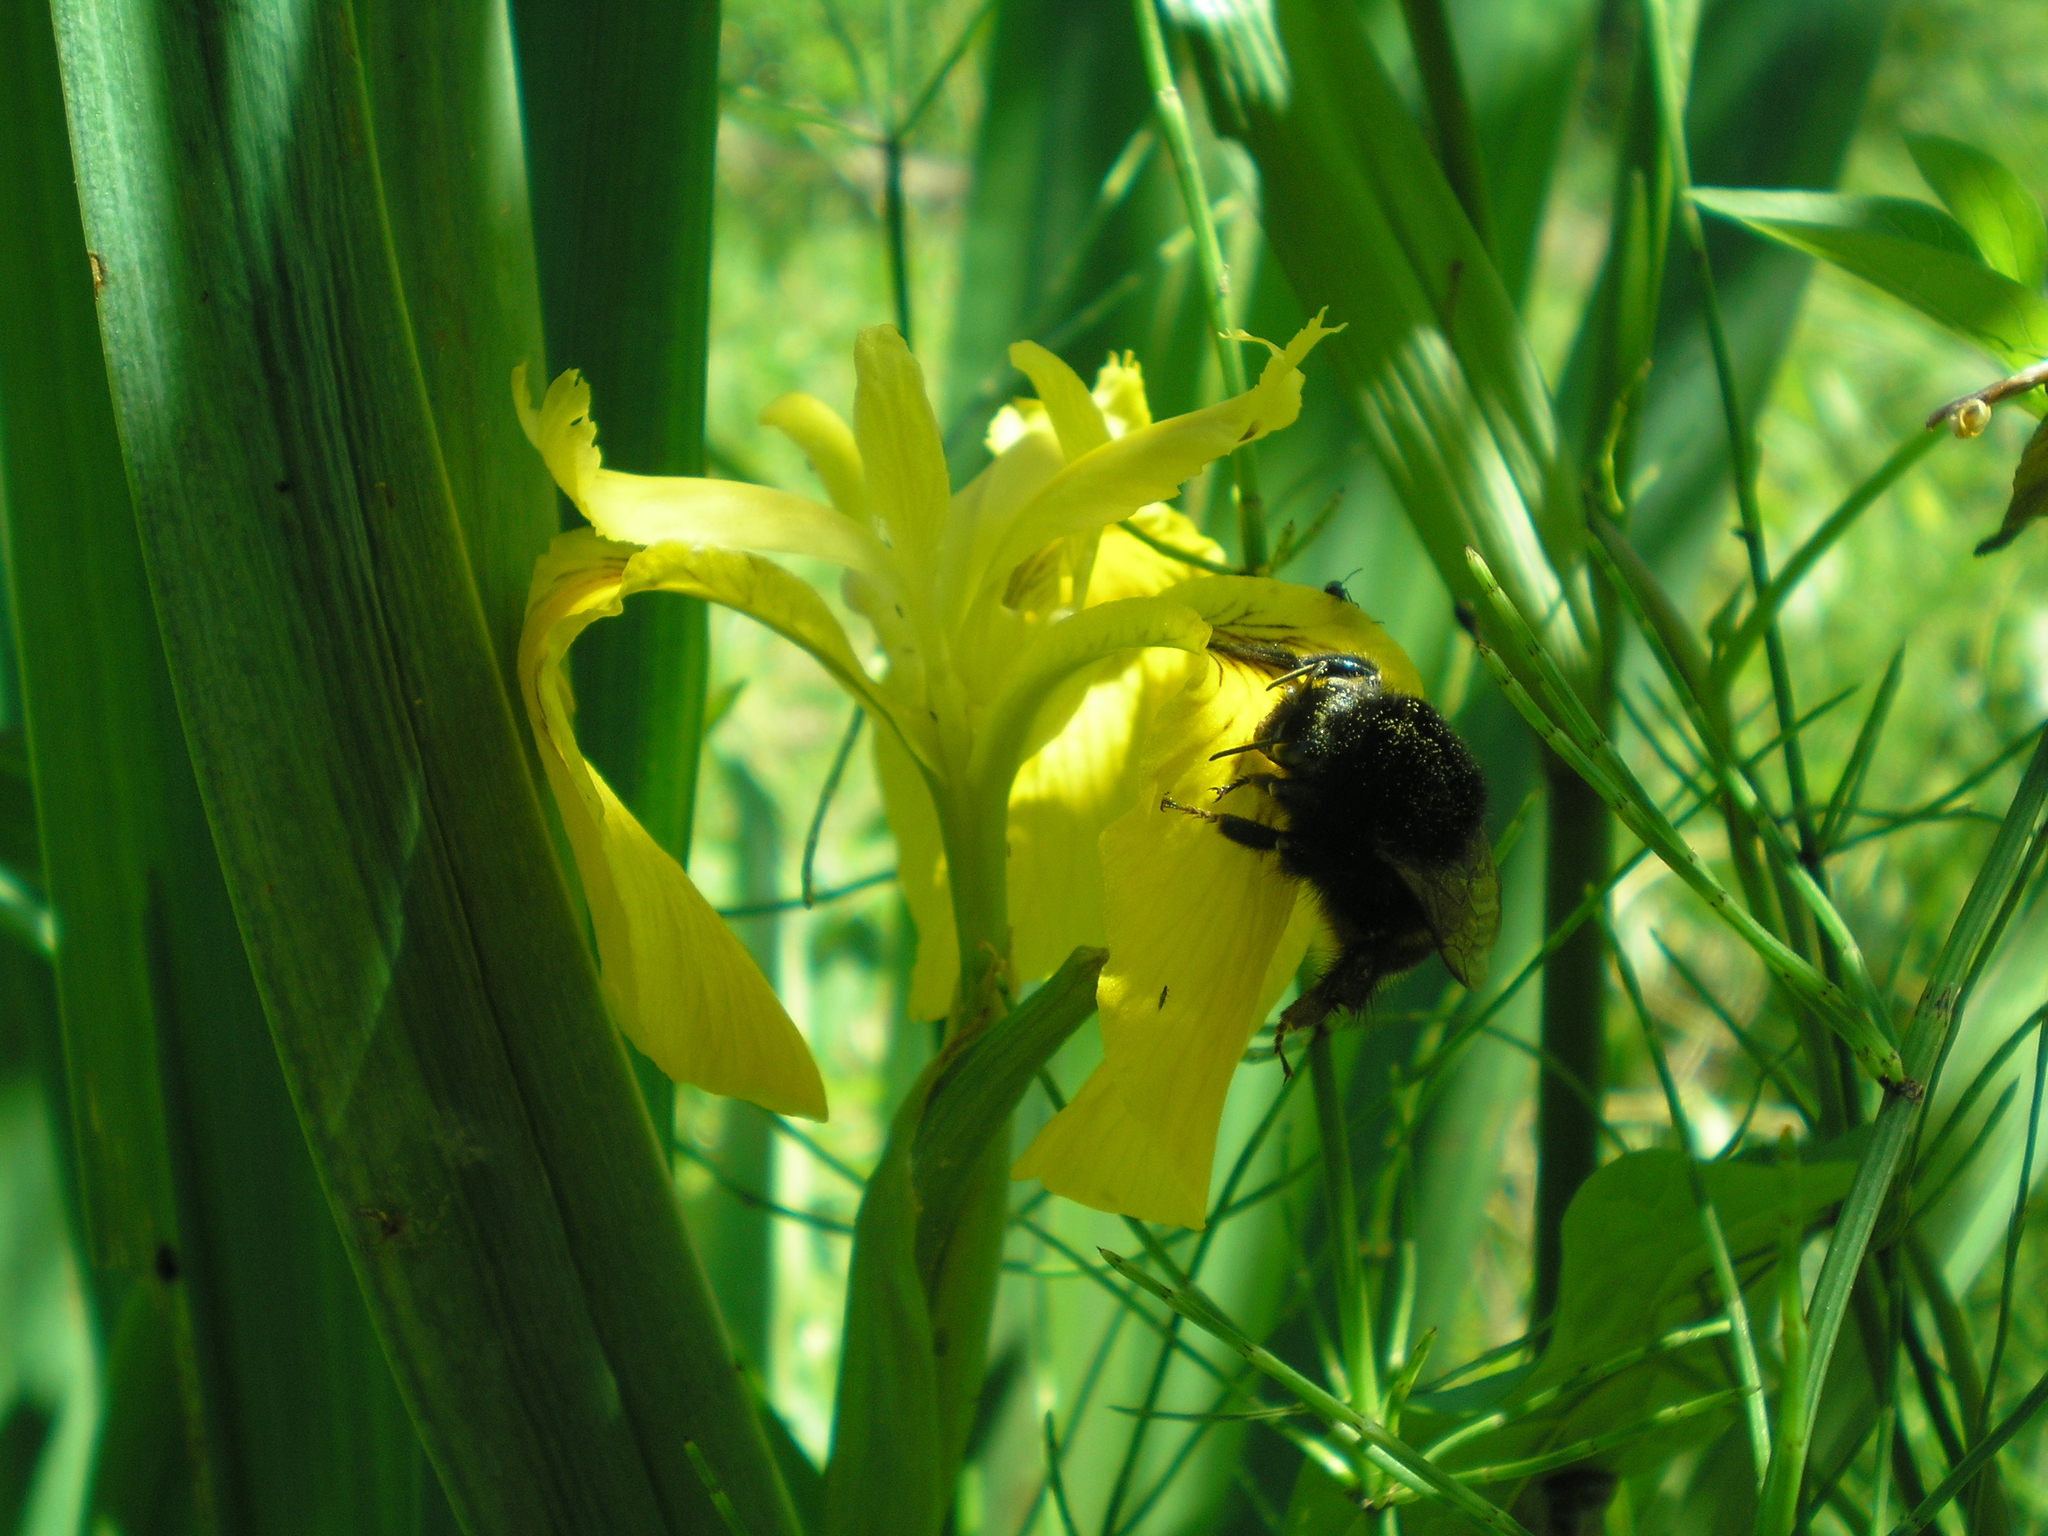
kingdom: Plantae
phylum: Tracheophyta
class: Liliopsida
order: Asparagales
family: Iridaceae
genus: Iris
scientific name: Iris pseudacorus
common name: Yellow flag
